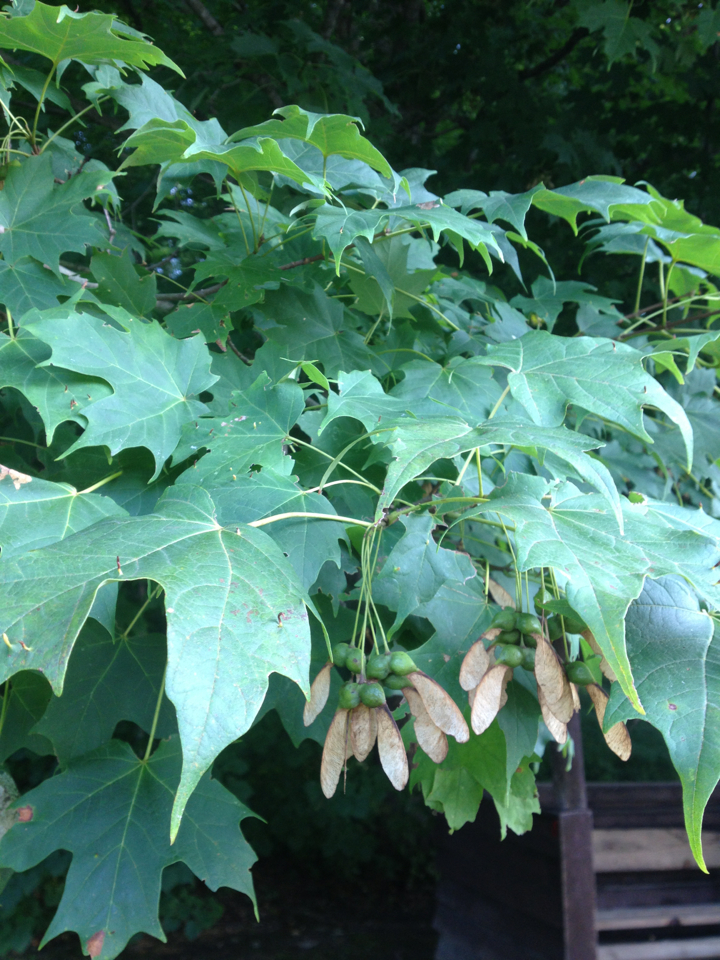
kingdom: Plantae
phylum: Tracheophyta
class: Magnoliopsida
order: Sapindales
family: Sapindaceae
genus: Acer
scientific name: Acer saccharum
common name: Sugar maple
